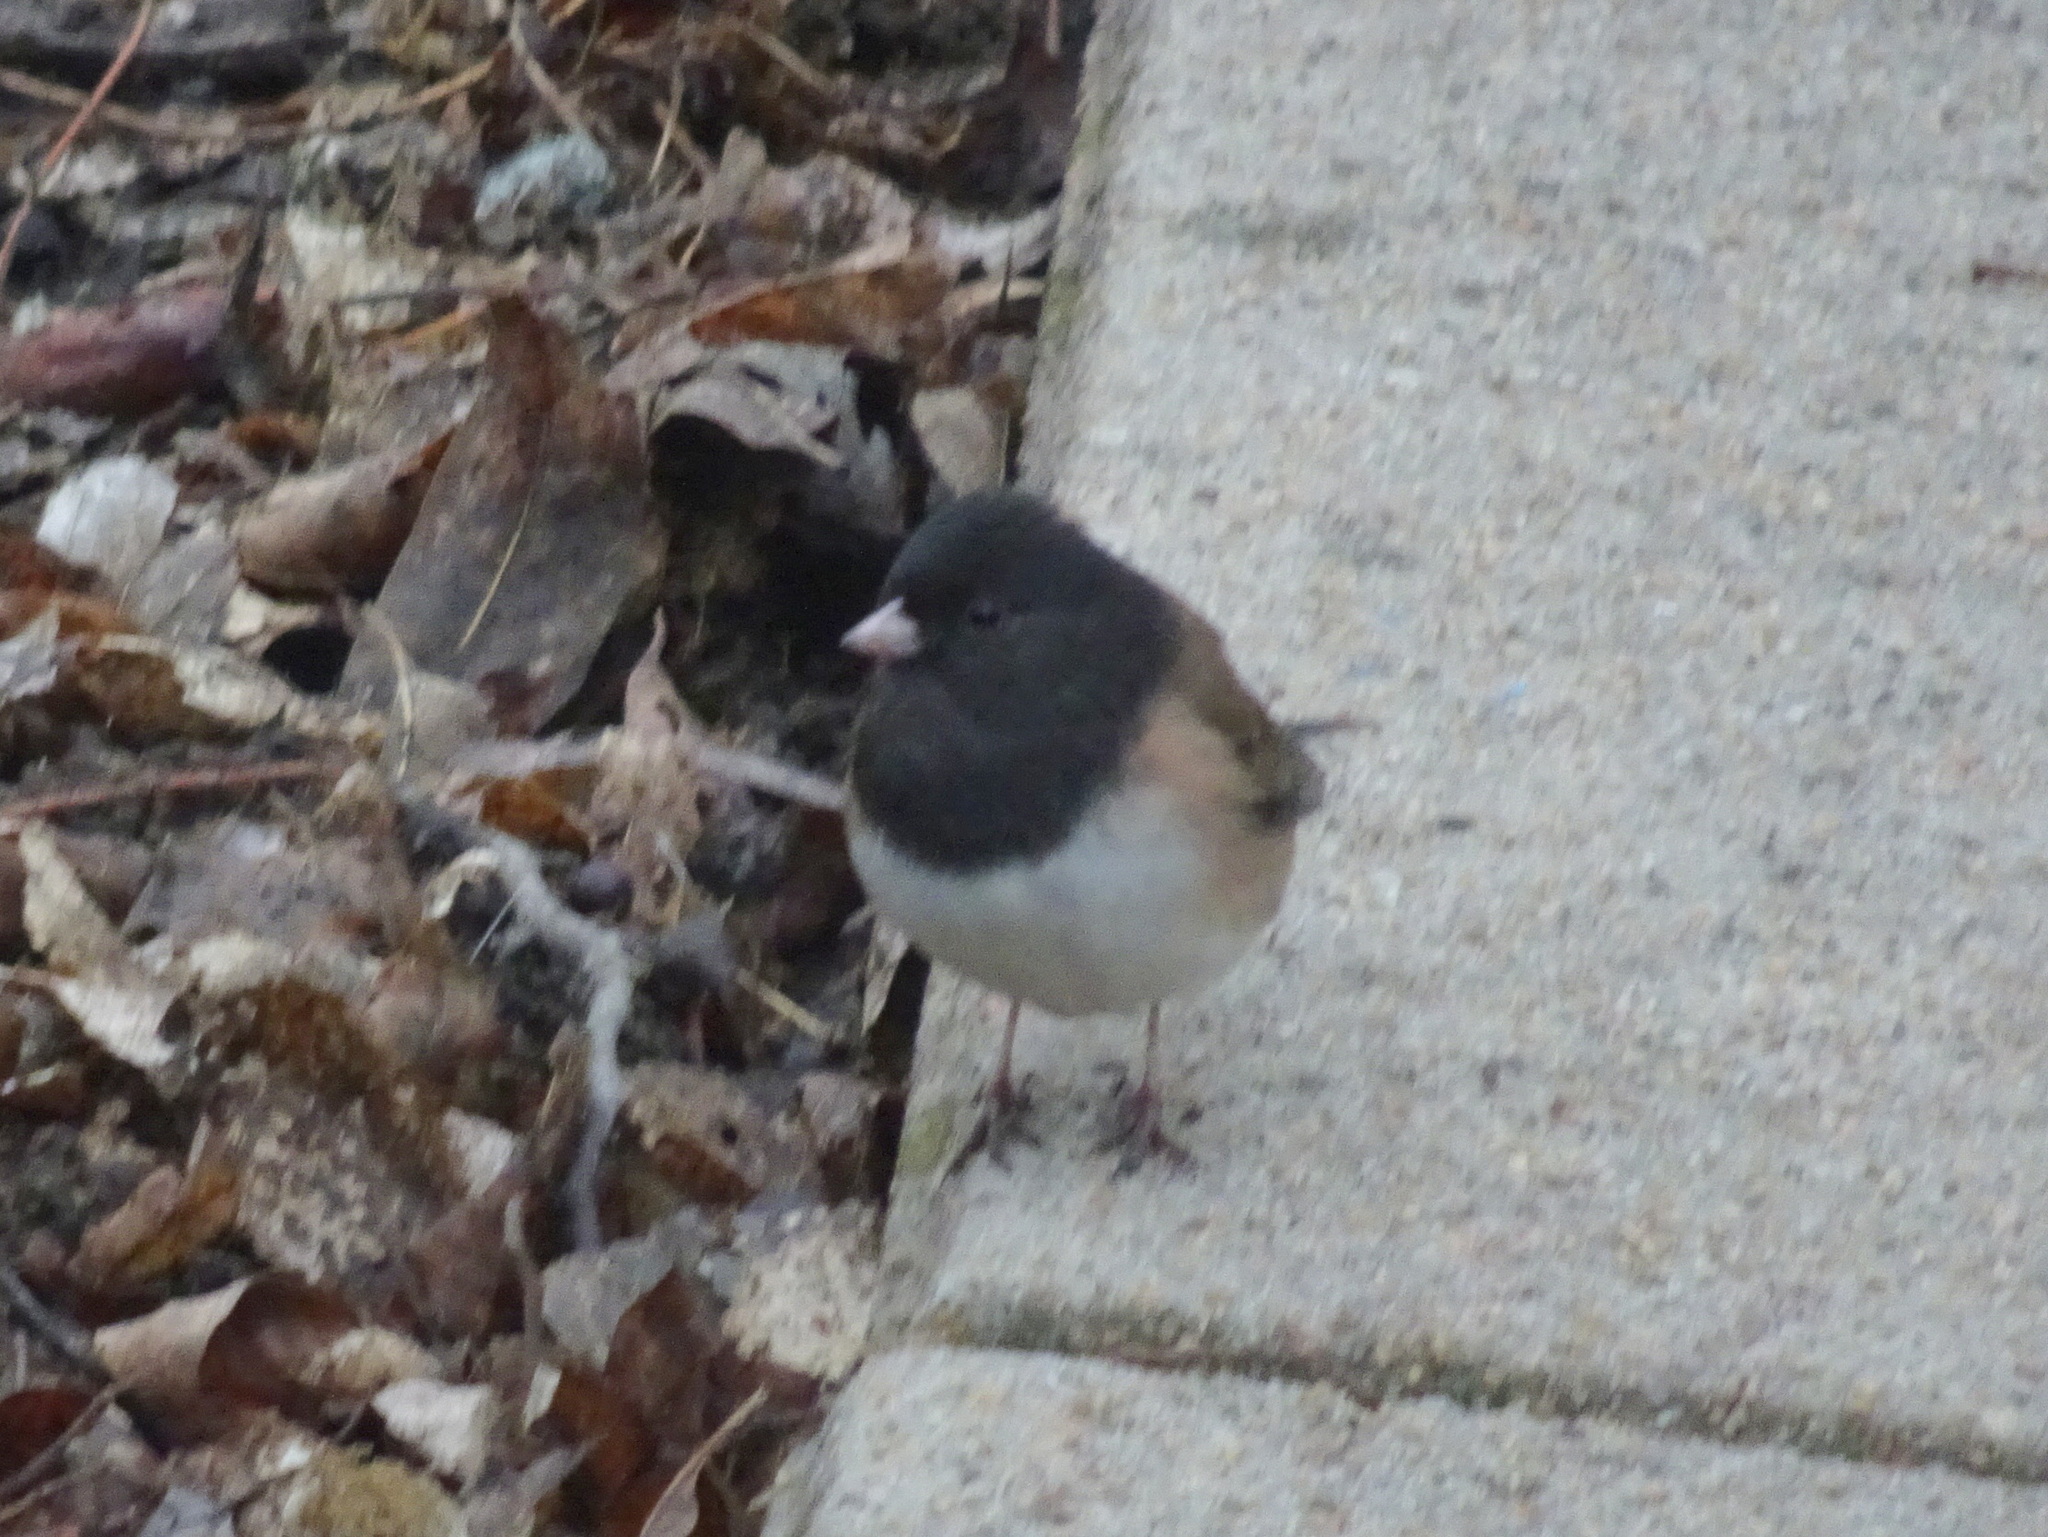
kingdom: Animalia
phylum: Chordata
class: Aves
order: Passeriformes
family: Passerellidae
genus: Junco
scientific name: Junco hyemalis
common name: Dark-eyed junco
